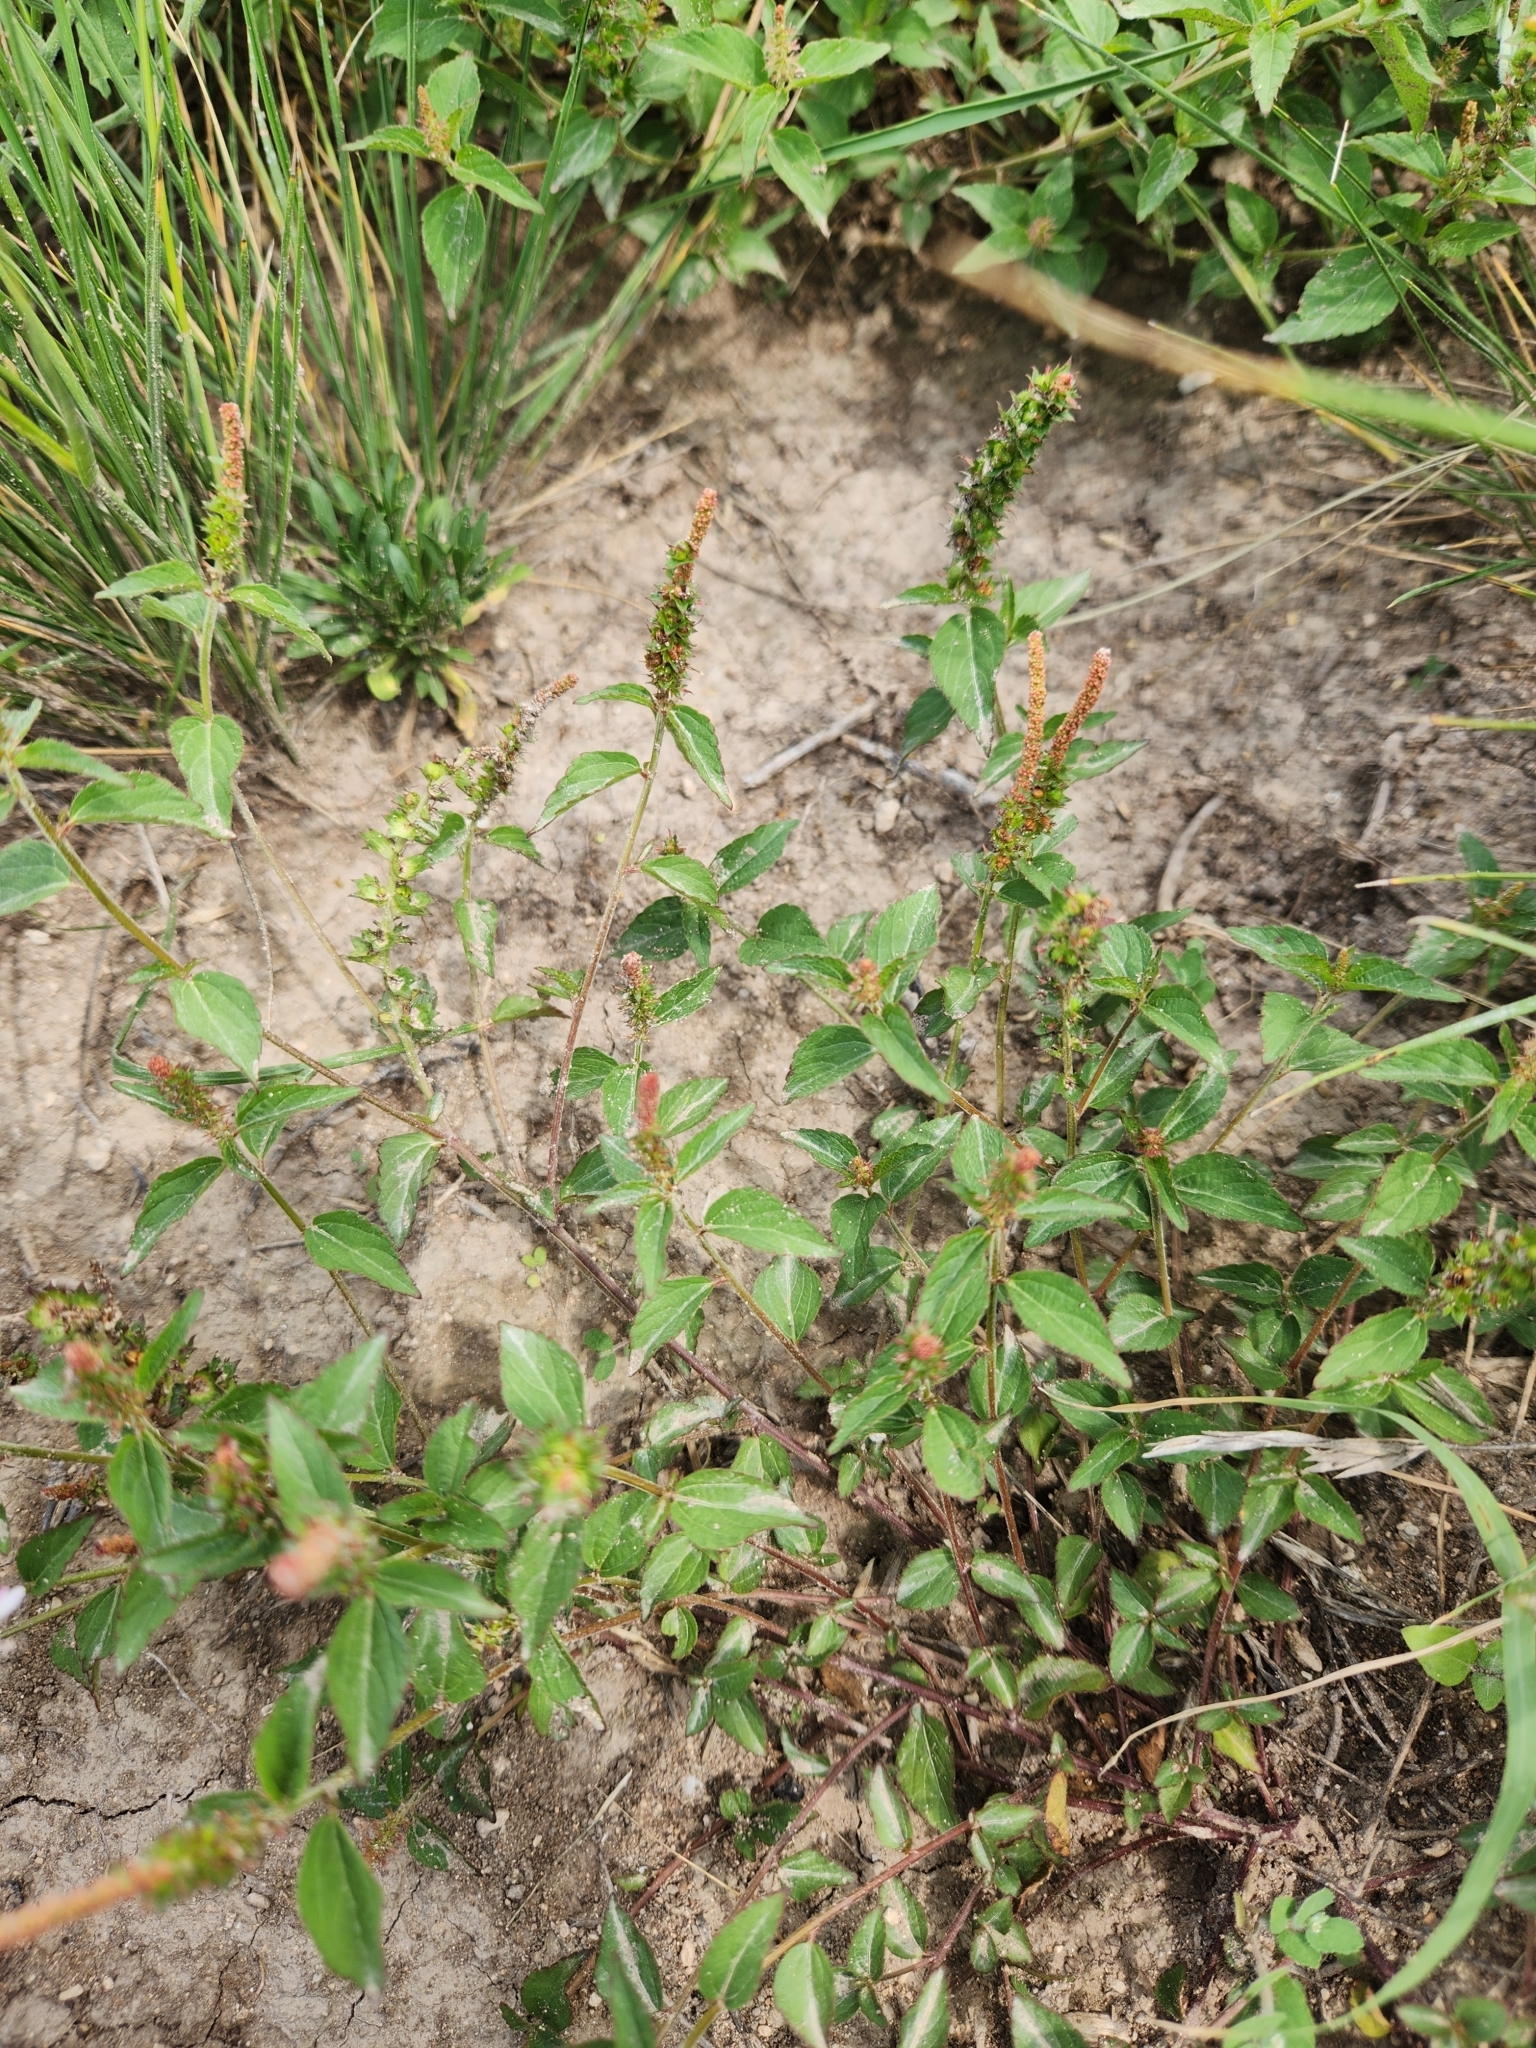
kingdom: Plantae
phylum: Tracheophyta
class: Magnoliopsida
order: Malpighiales
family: Euphorbiaceae
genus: Acalypha
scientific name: Acalypha phleoides
